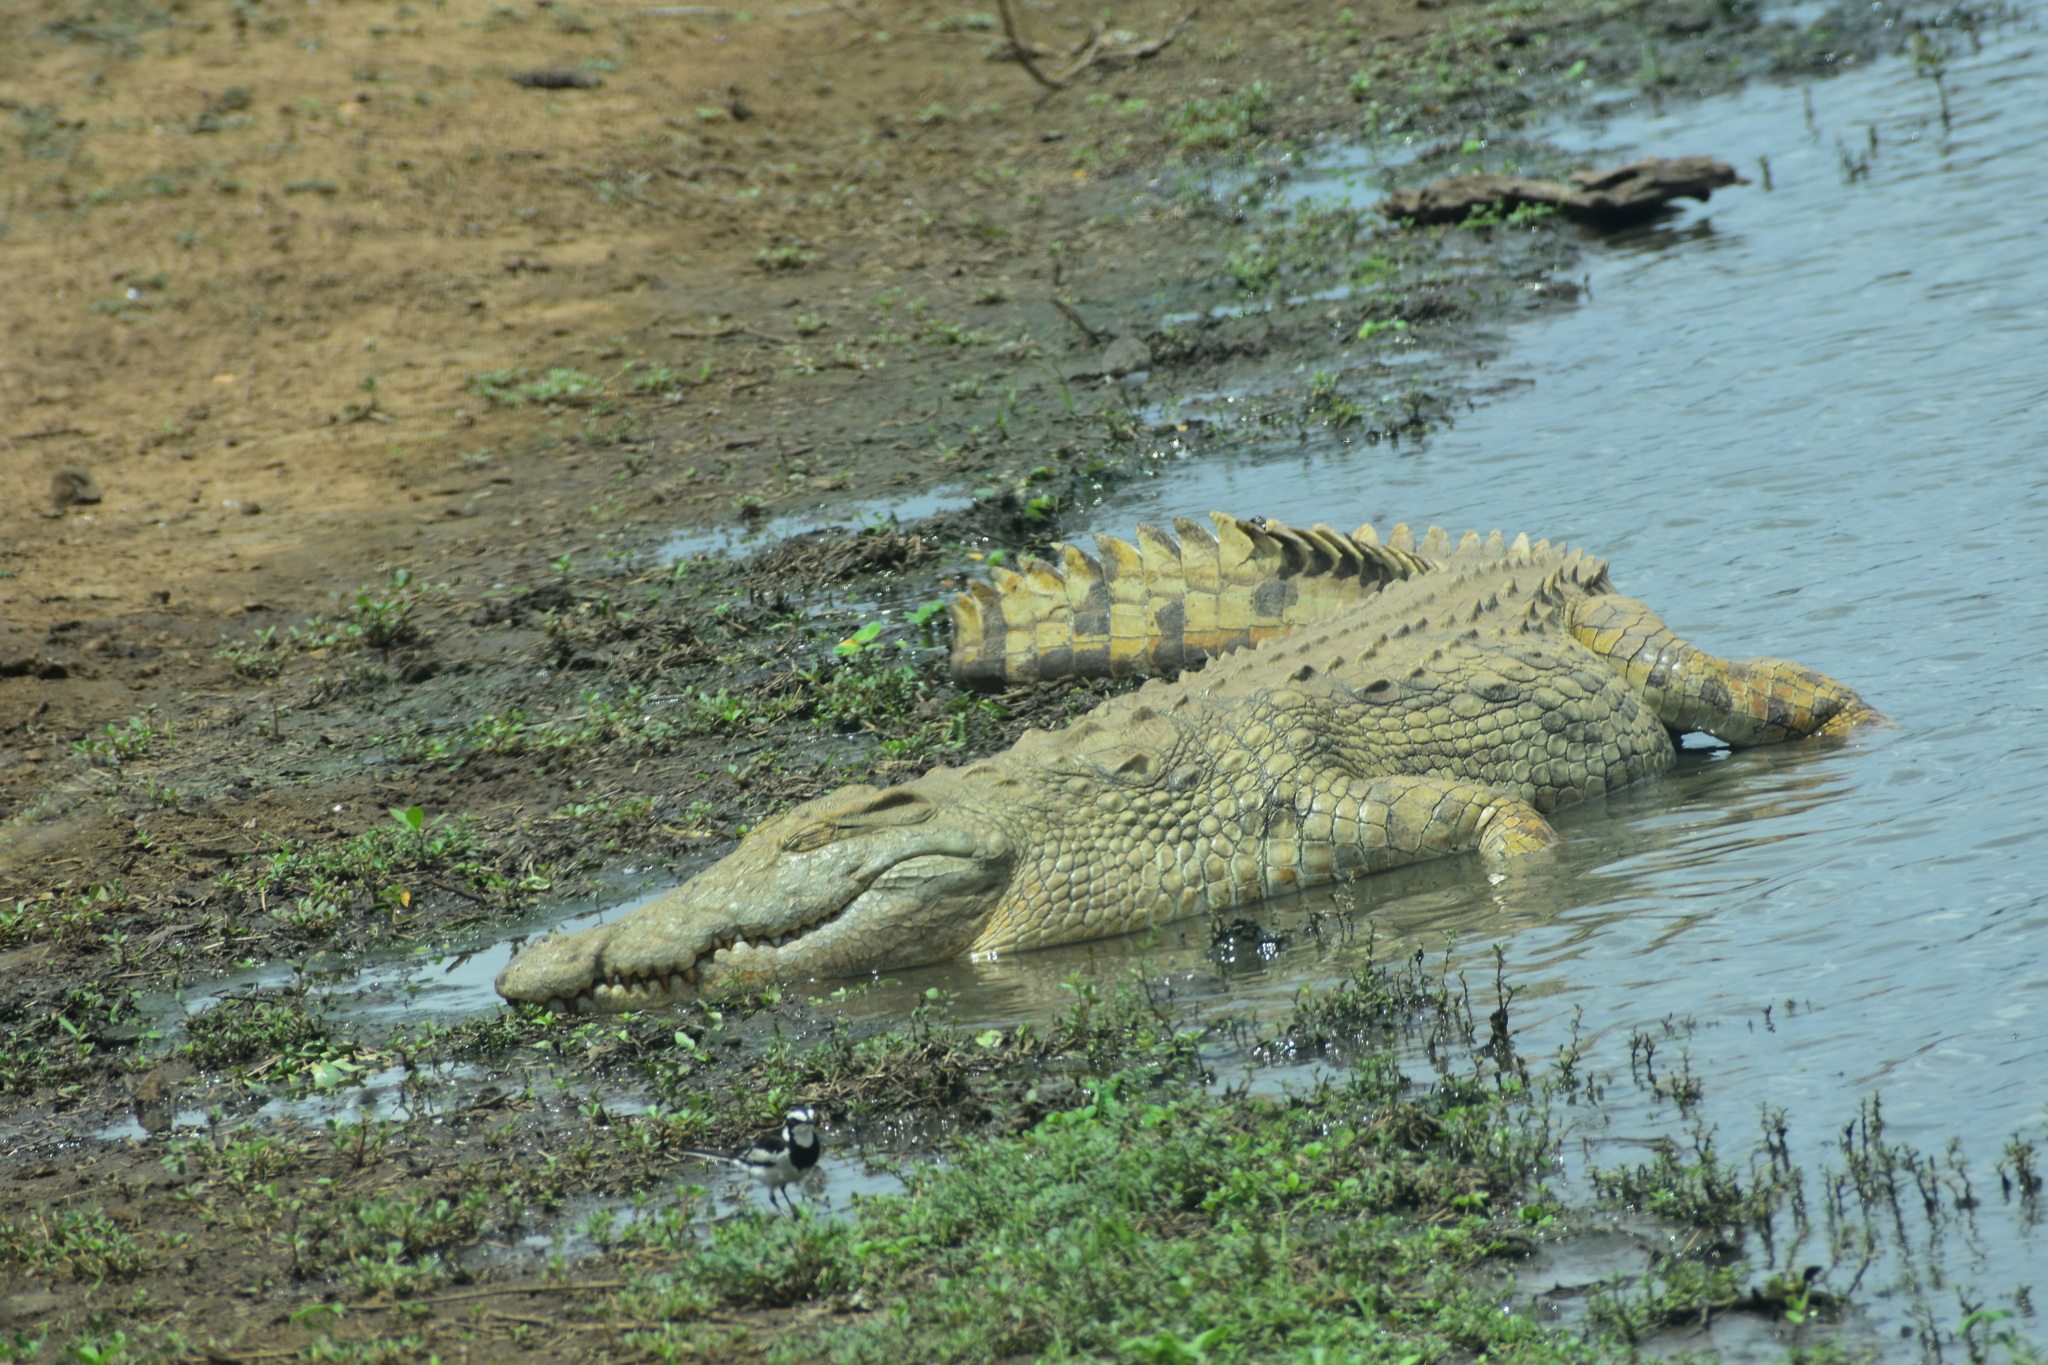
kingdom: Animalia
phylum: Chordata
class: Crocodylia
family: Crocodylidae
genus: Crocodylus
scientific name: Crocodylus niloticus
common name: Nile crocodile
